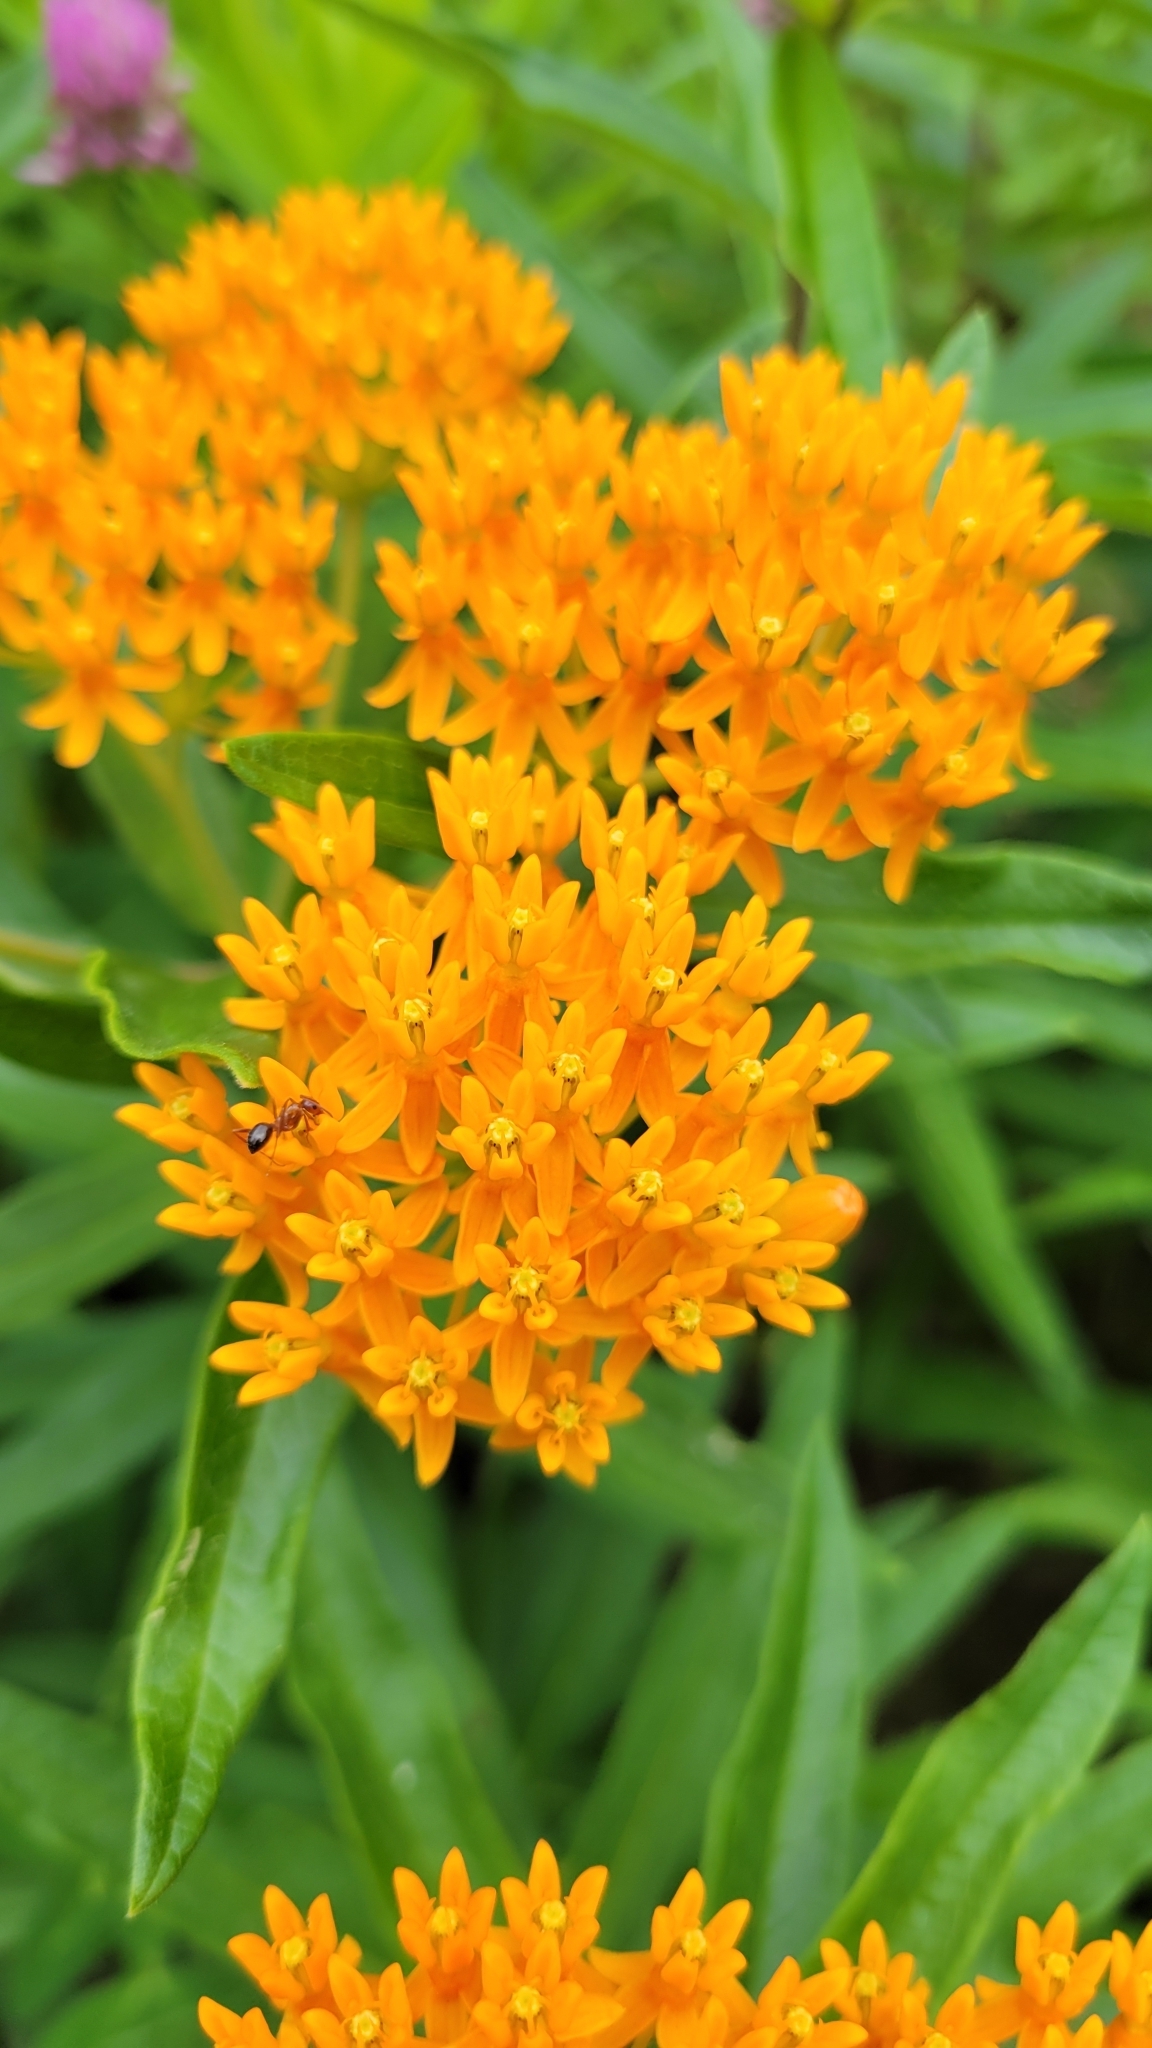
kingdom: Plantae
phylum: Tracheophyta
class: Magnoliopsida
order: Gentianales
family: Apocynaceae
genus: Asclepias
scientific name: Asclepias tuberosa
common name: Butterfly milkweed
